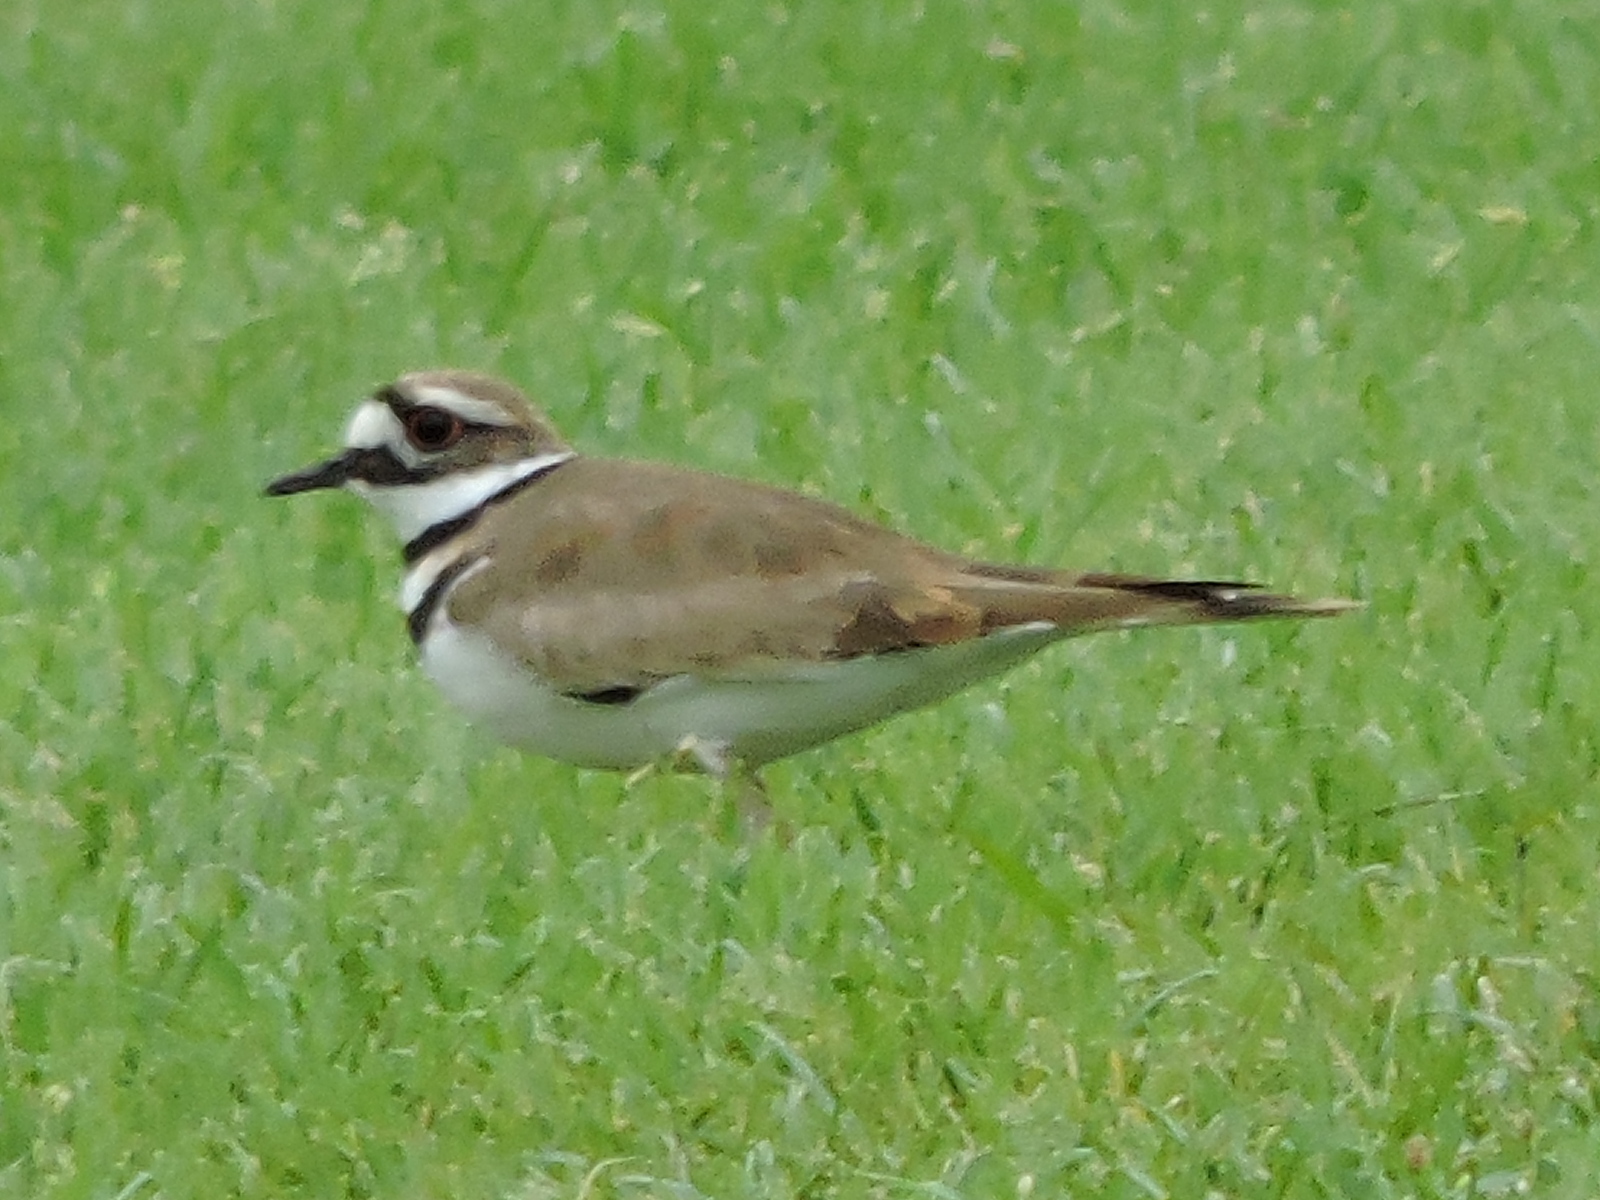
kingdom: Animalia
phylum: Chordata
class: Aves
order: Charadriiformes
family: Charadriidae
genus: Charadrius
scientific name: Charadrius vociferus
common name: Killdeer
